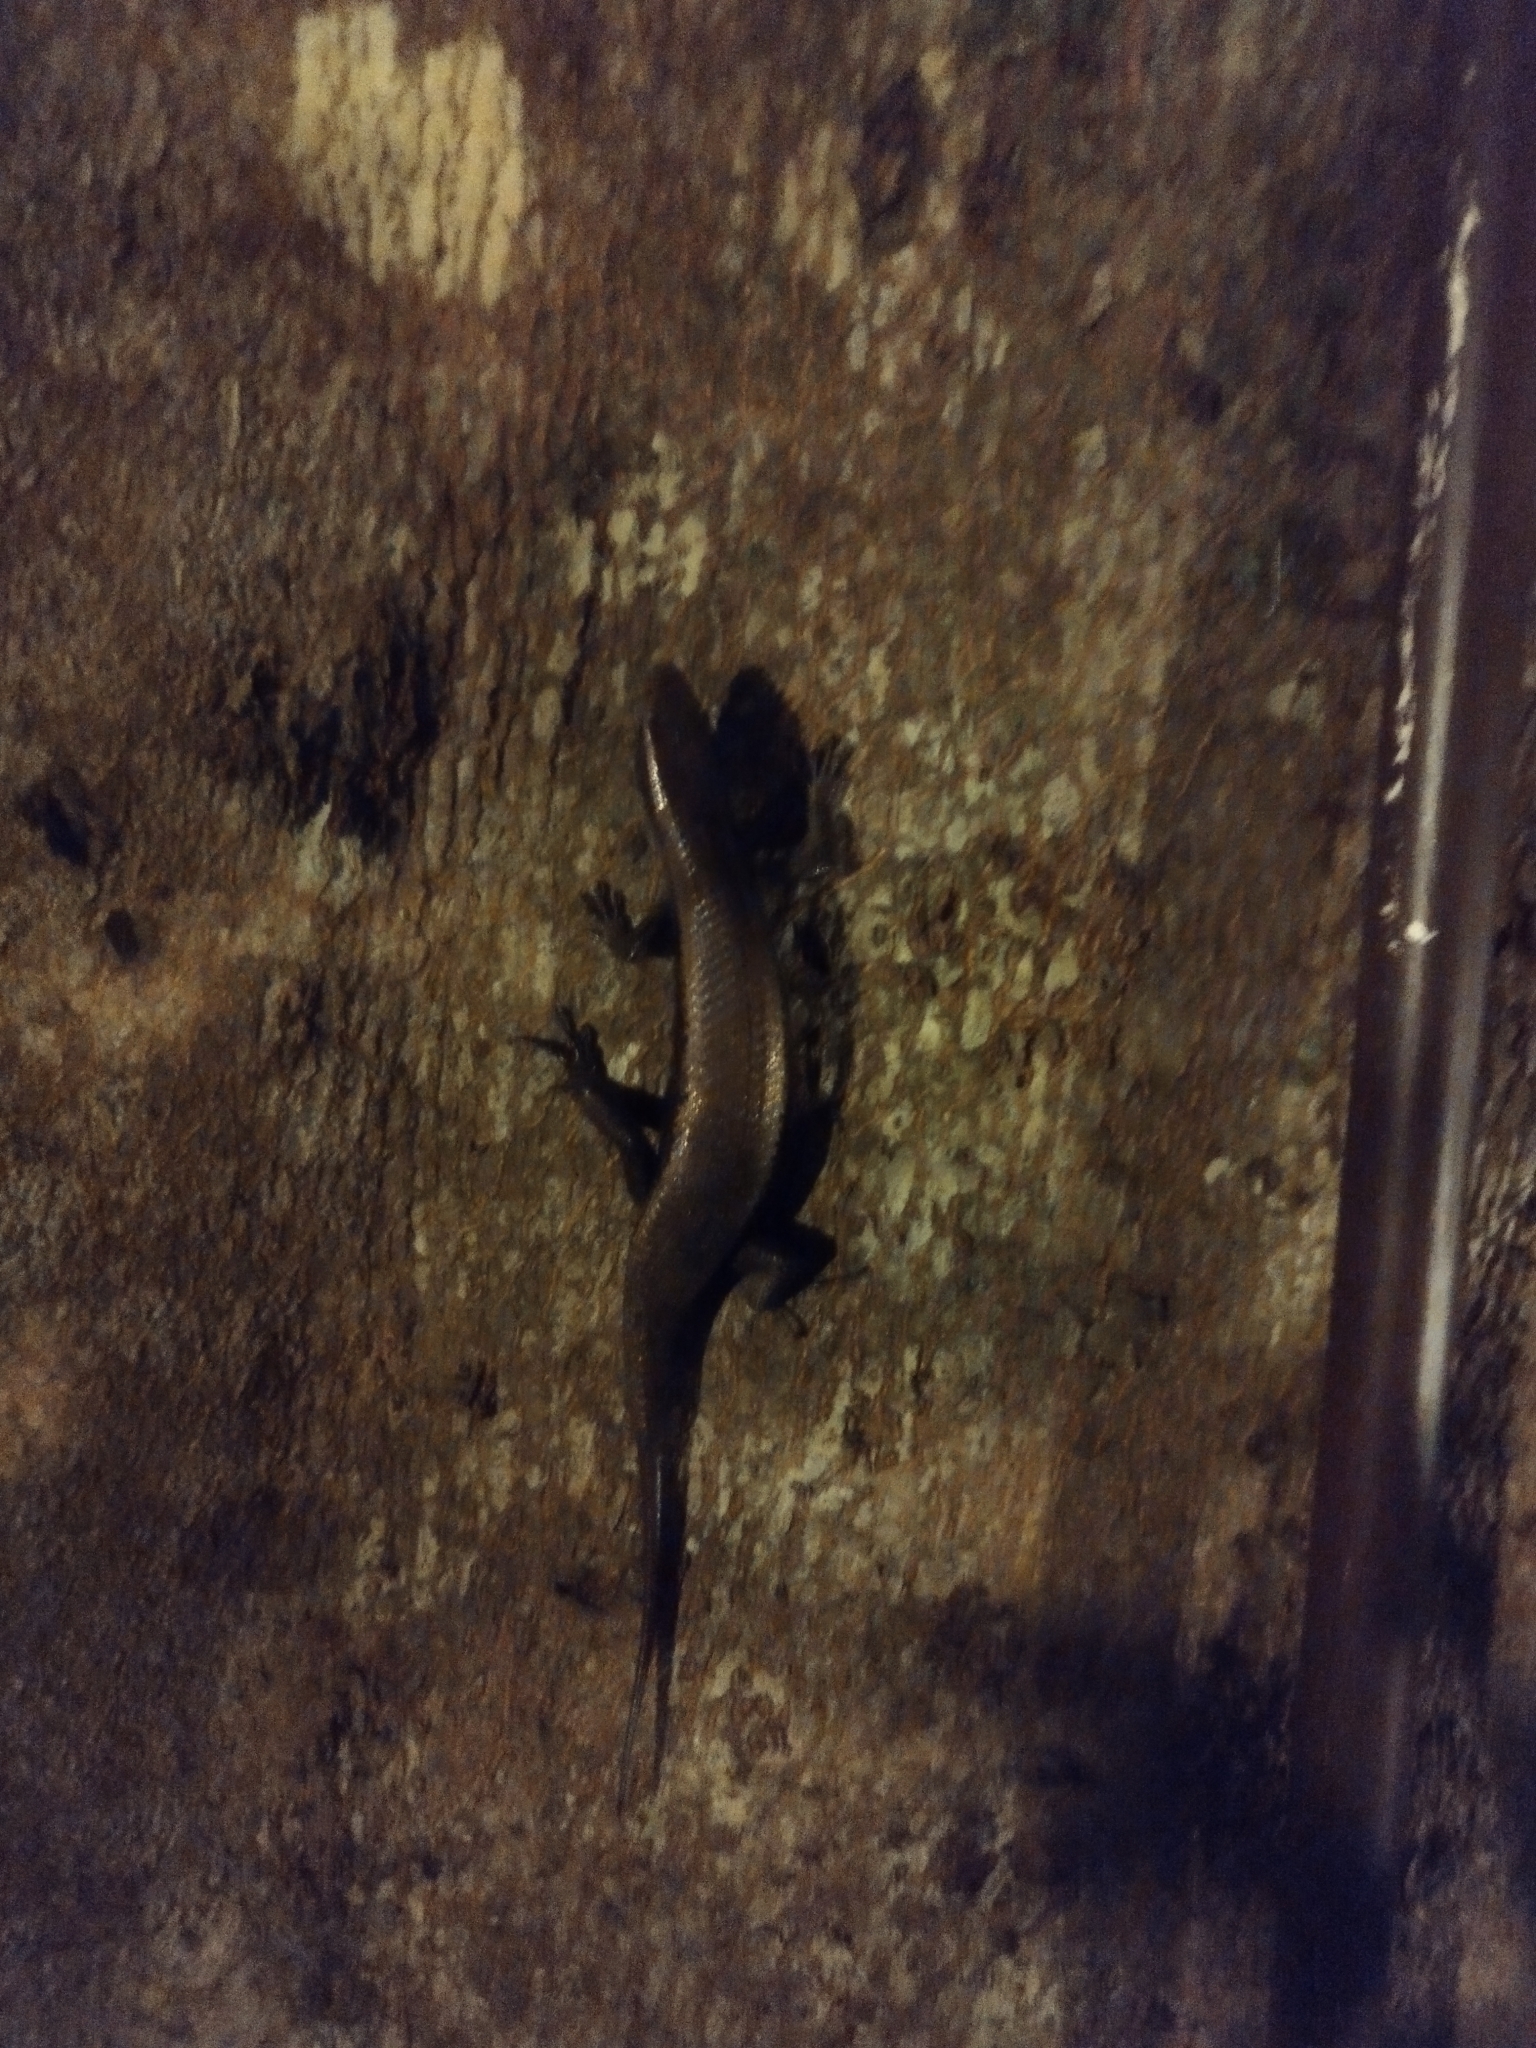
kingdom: Animalia
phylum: Chordata
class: Squamata
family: Scincidae
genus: Eutropis
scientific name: Eutropis multifasciata
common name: Common mabuya
